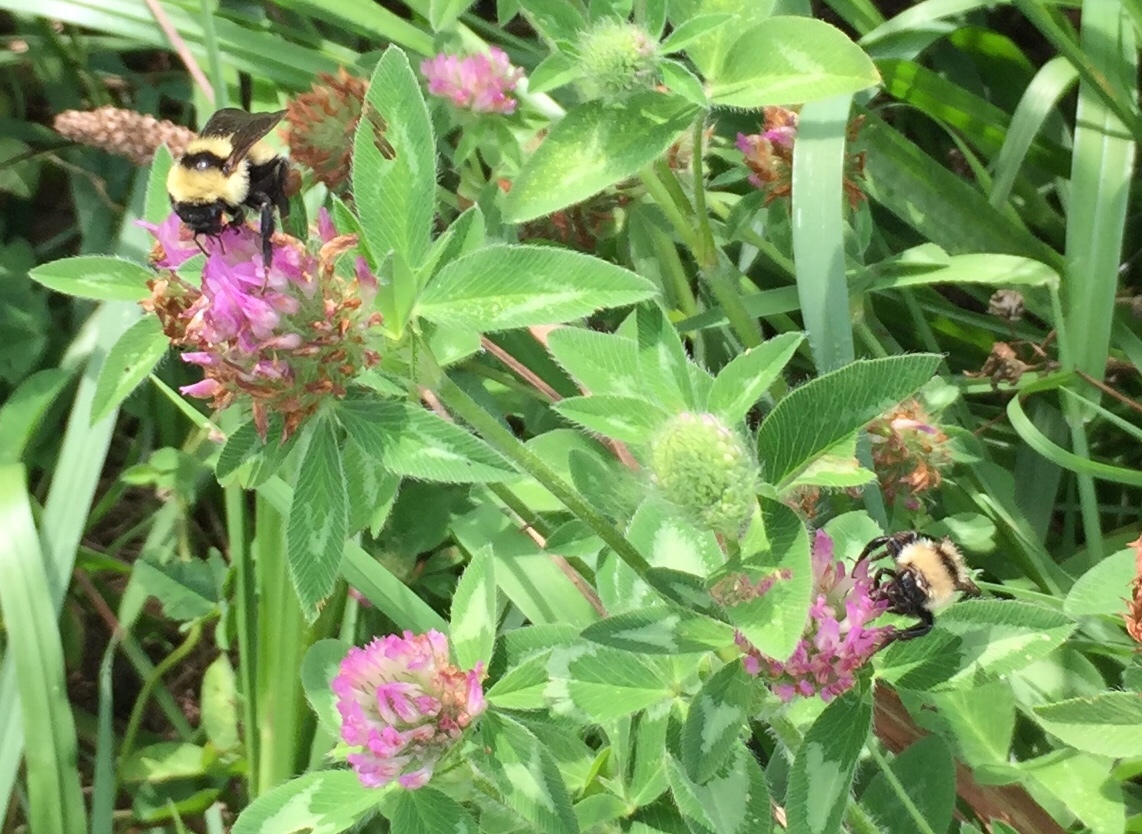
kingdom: Animalia
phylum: Arthropoda
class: Insecta
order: Hymenoptera
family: Apidae
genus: Bombus
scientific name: Bombus fervidus
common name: Yellow bumble bee
